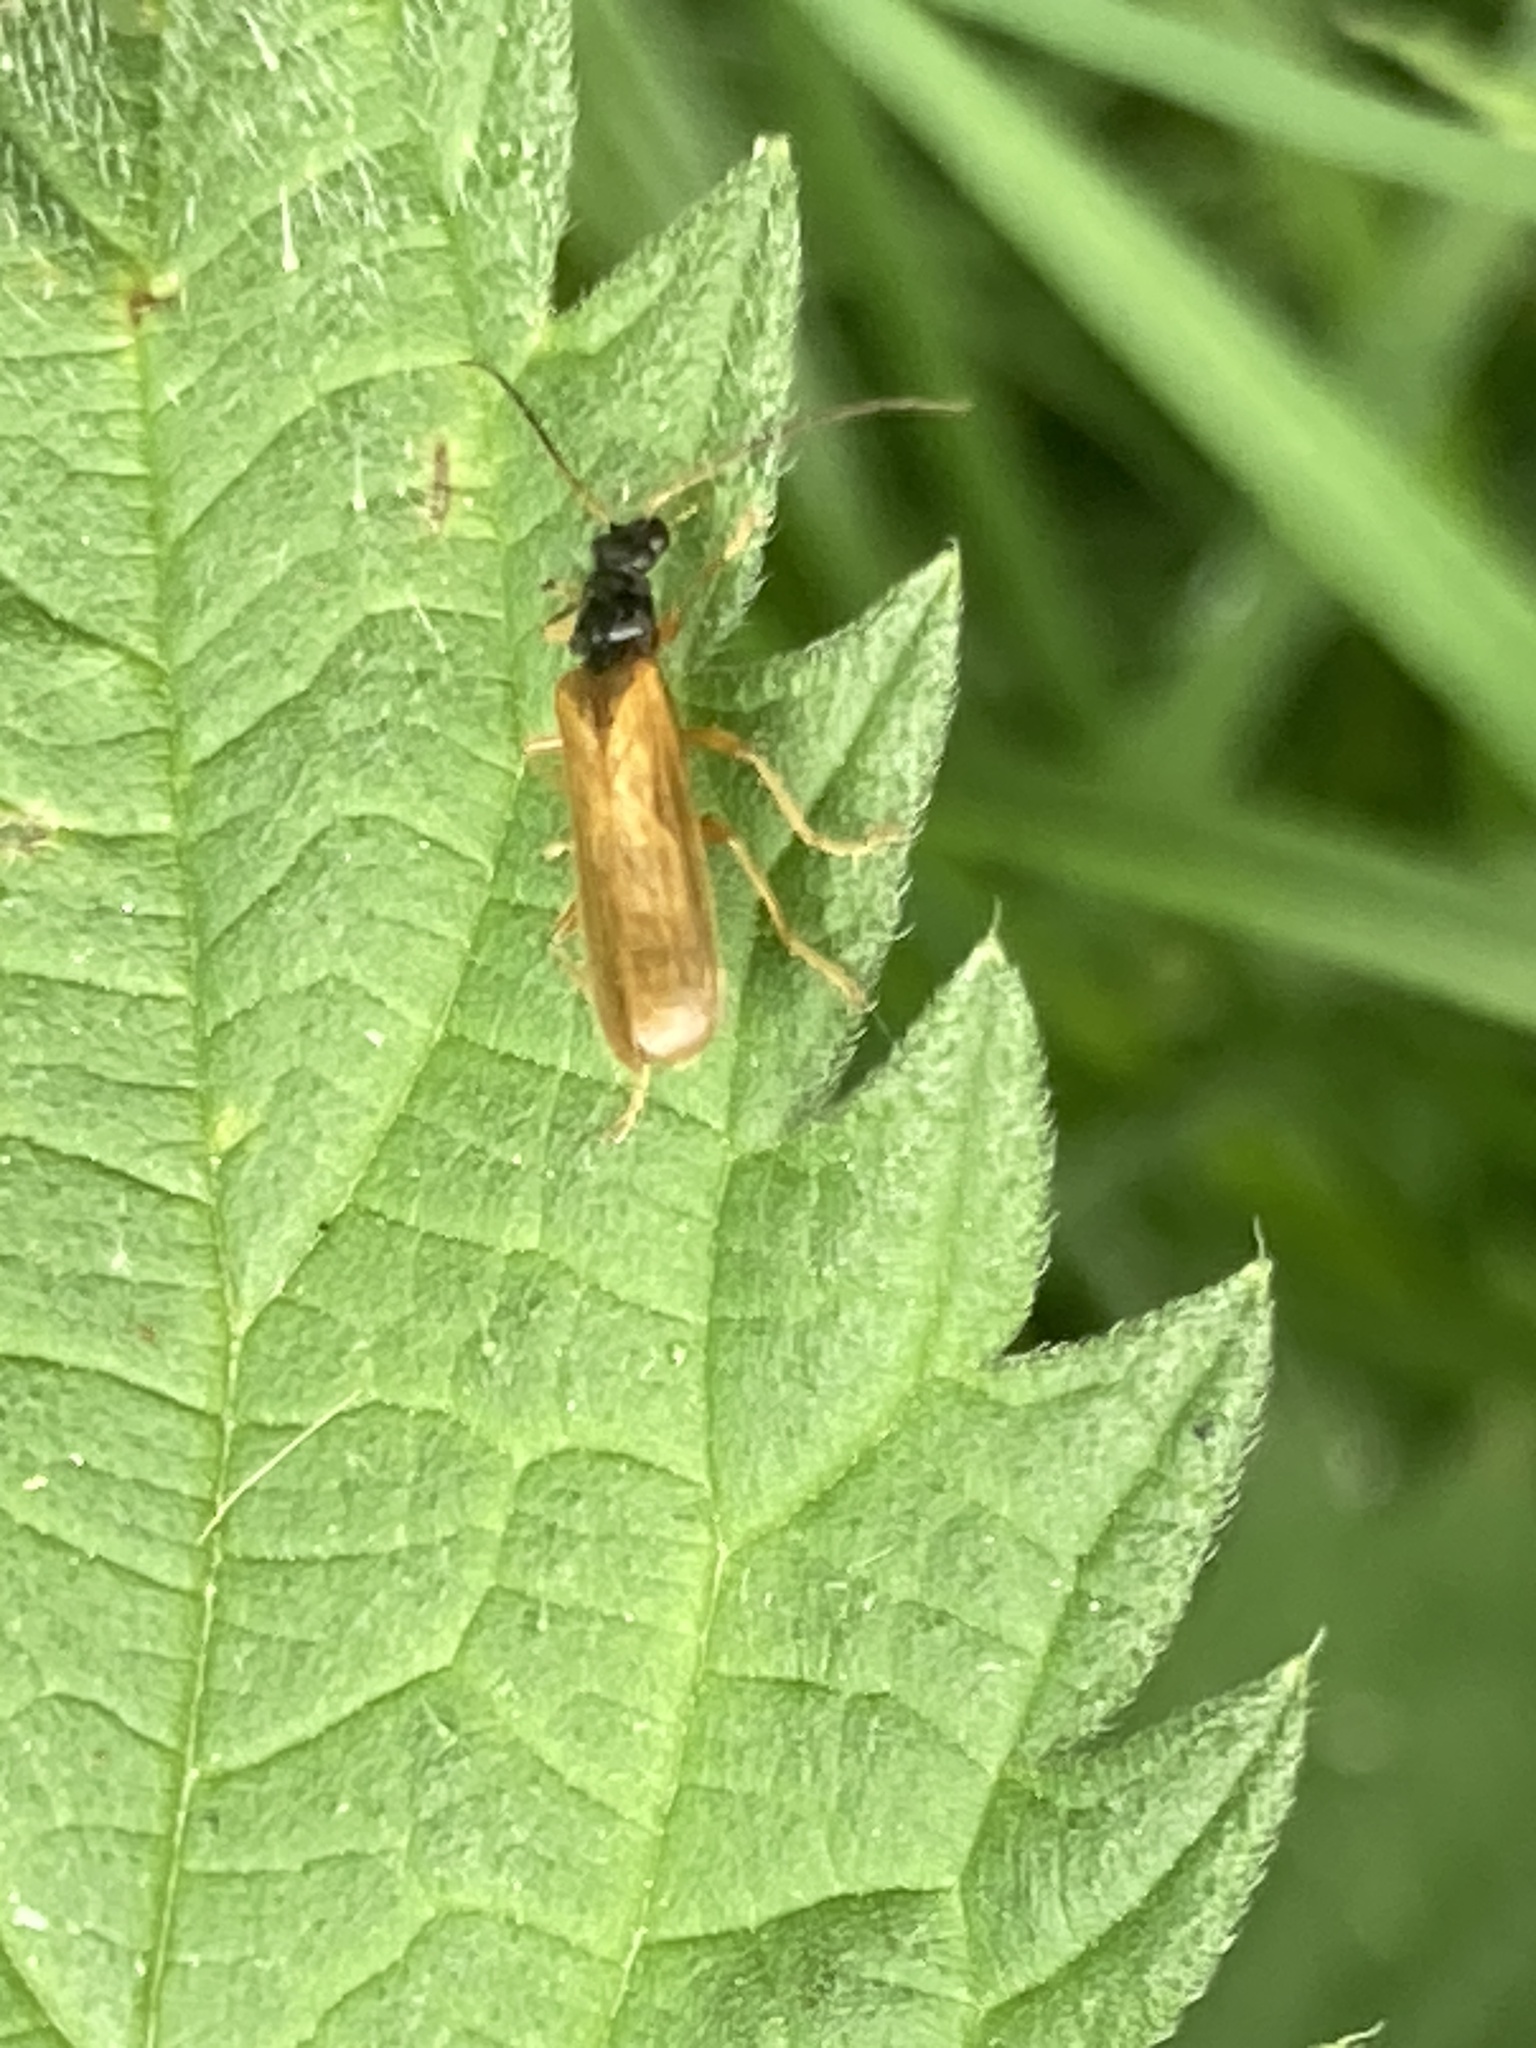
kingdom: Animalia
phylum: Arthropoda
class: Insecta
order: Coleoptera
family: Cantharidae
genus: Rhagonycha
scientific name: Rhagonycha lignosa
